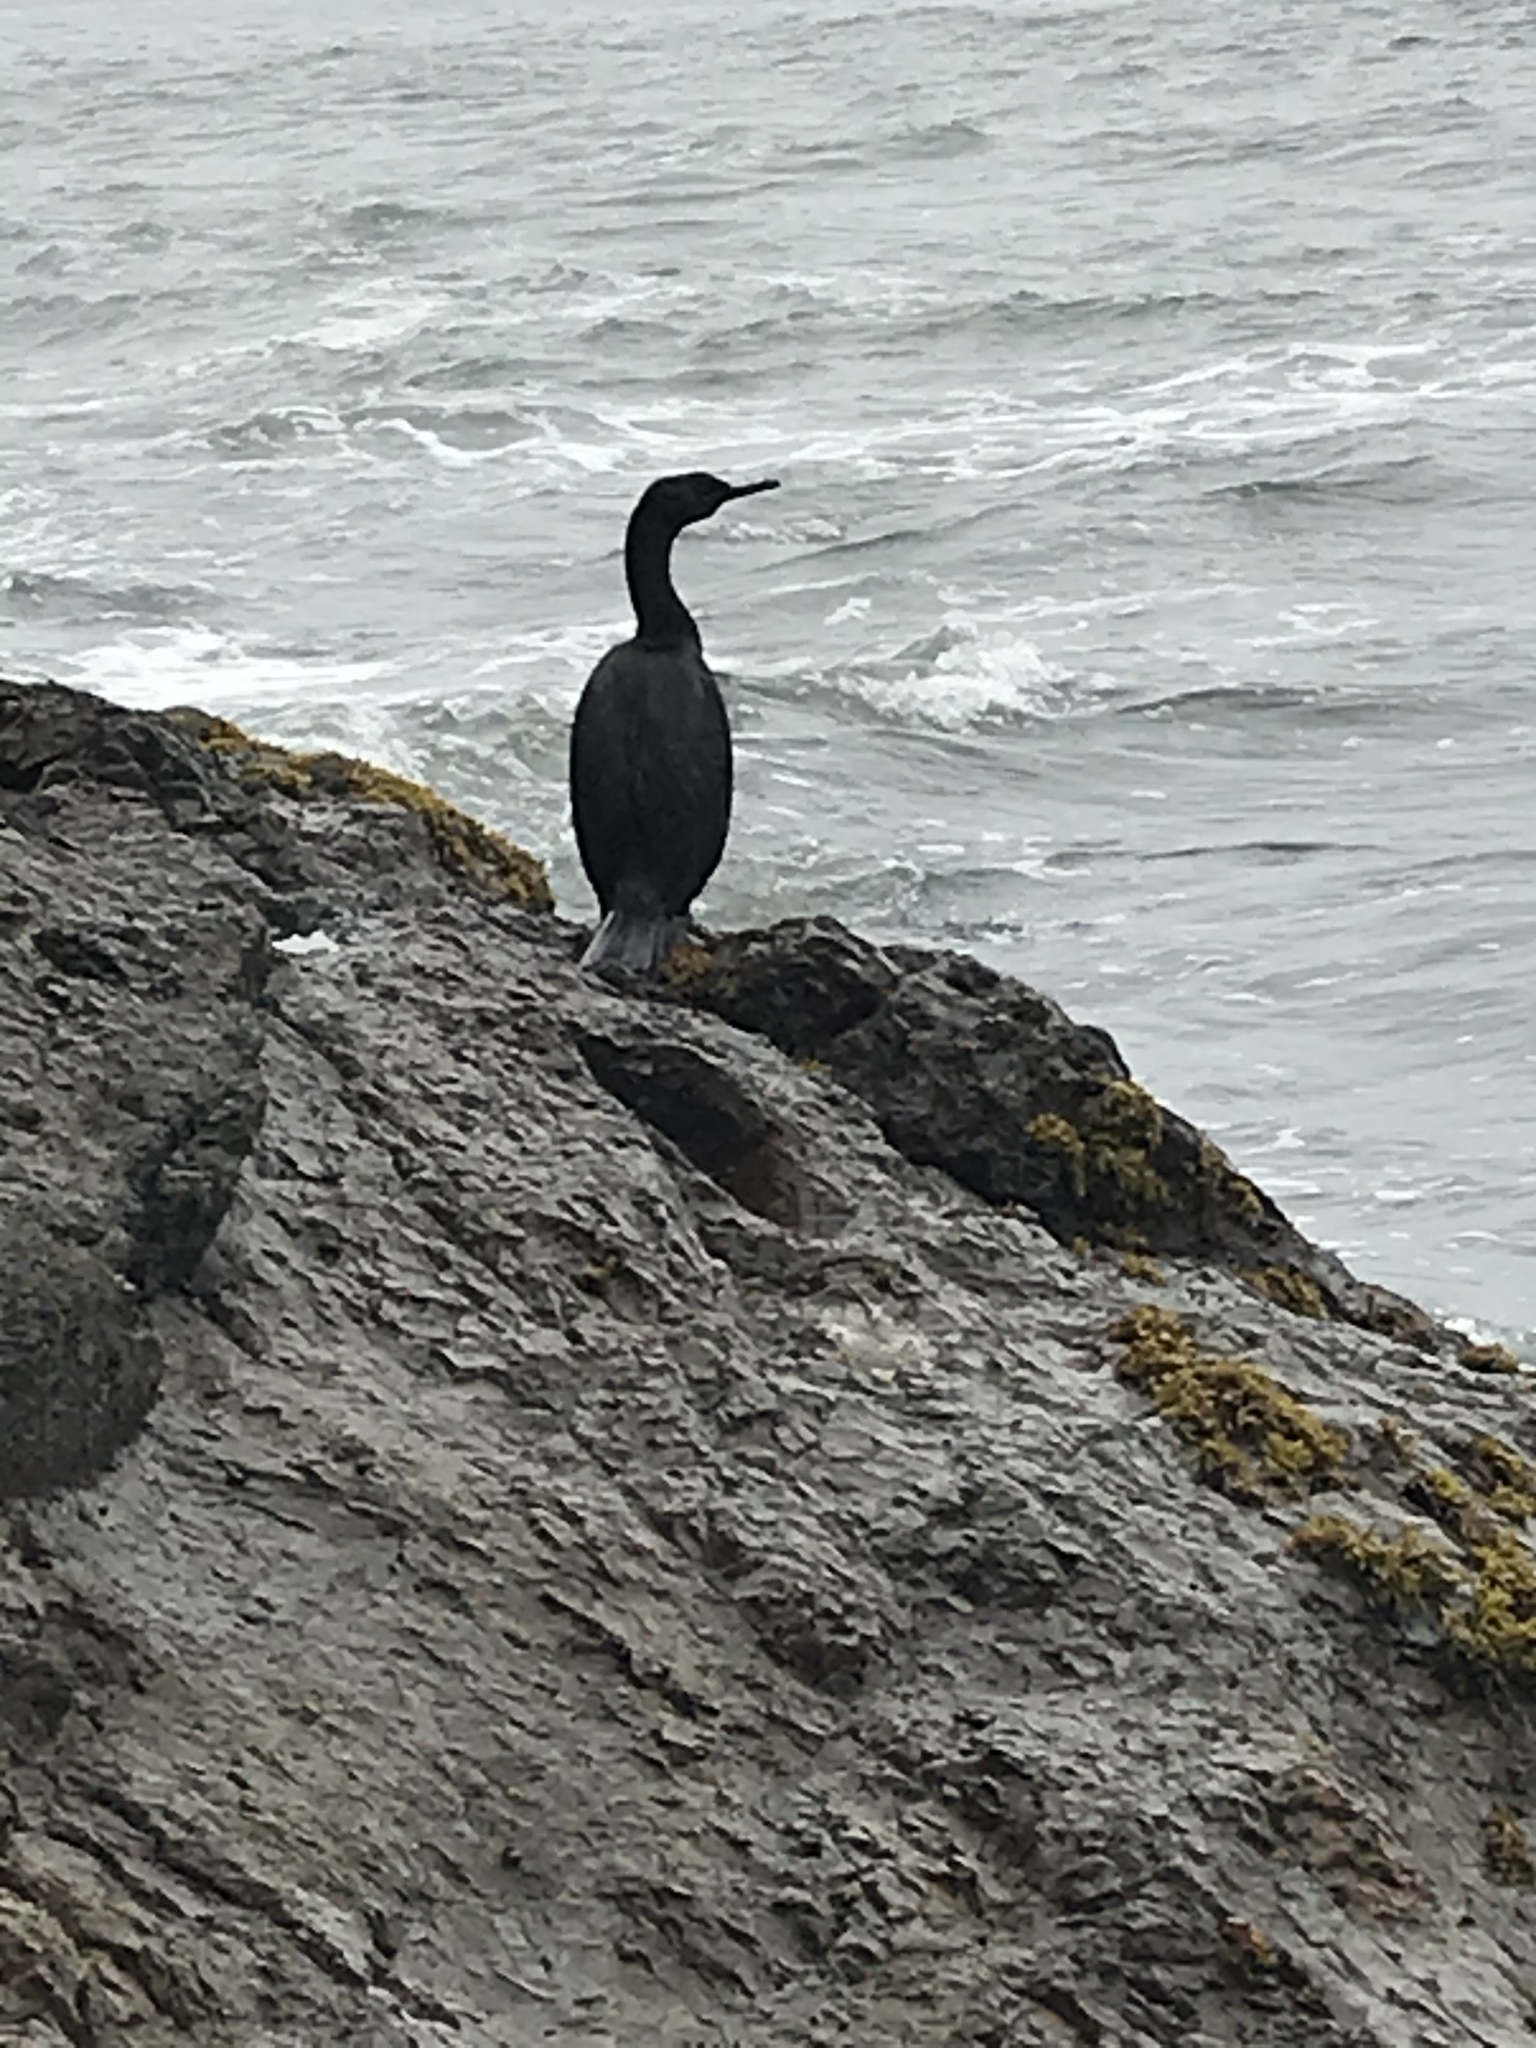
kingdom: Animalia
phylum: Chordata
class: Aves
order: Suliformes
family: Phalacrocoracidae
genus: Phalacrocorax
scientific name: Phalacrocorax pelagicus
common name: Pelagic cormorant
